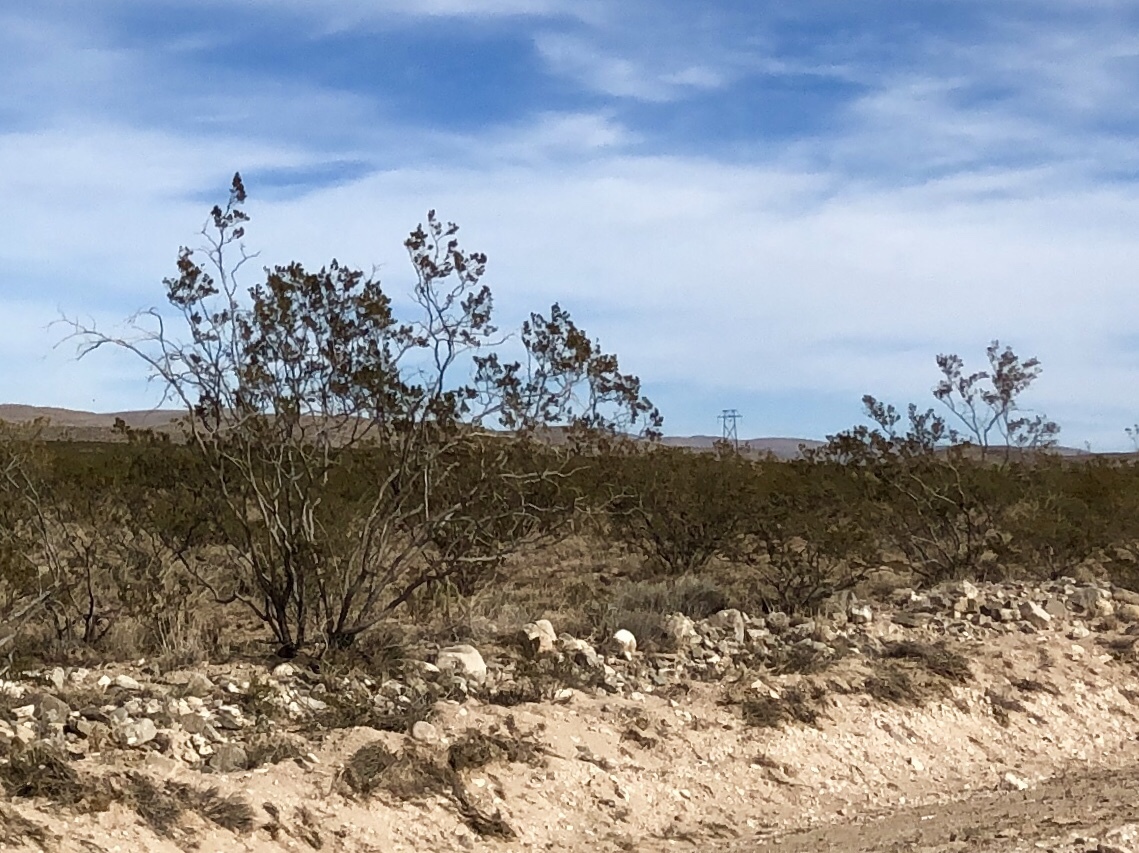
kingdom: Plantae
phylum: Tracheophyta
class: Magnoliopsida
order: Zygophyllales
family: Zygophyllaceae
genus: Larrea
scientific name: Larrea tridentata
